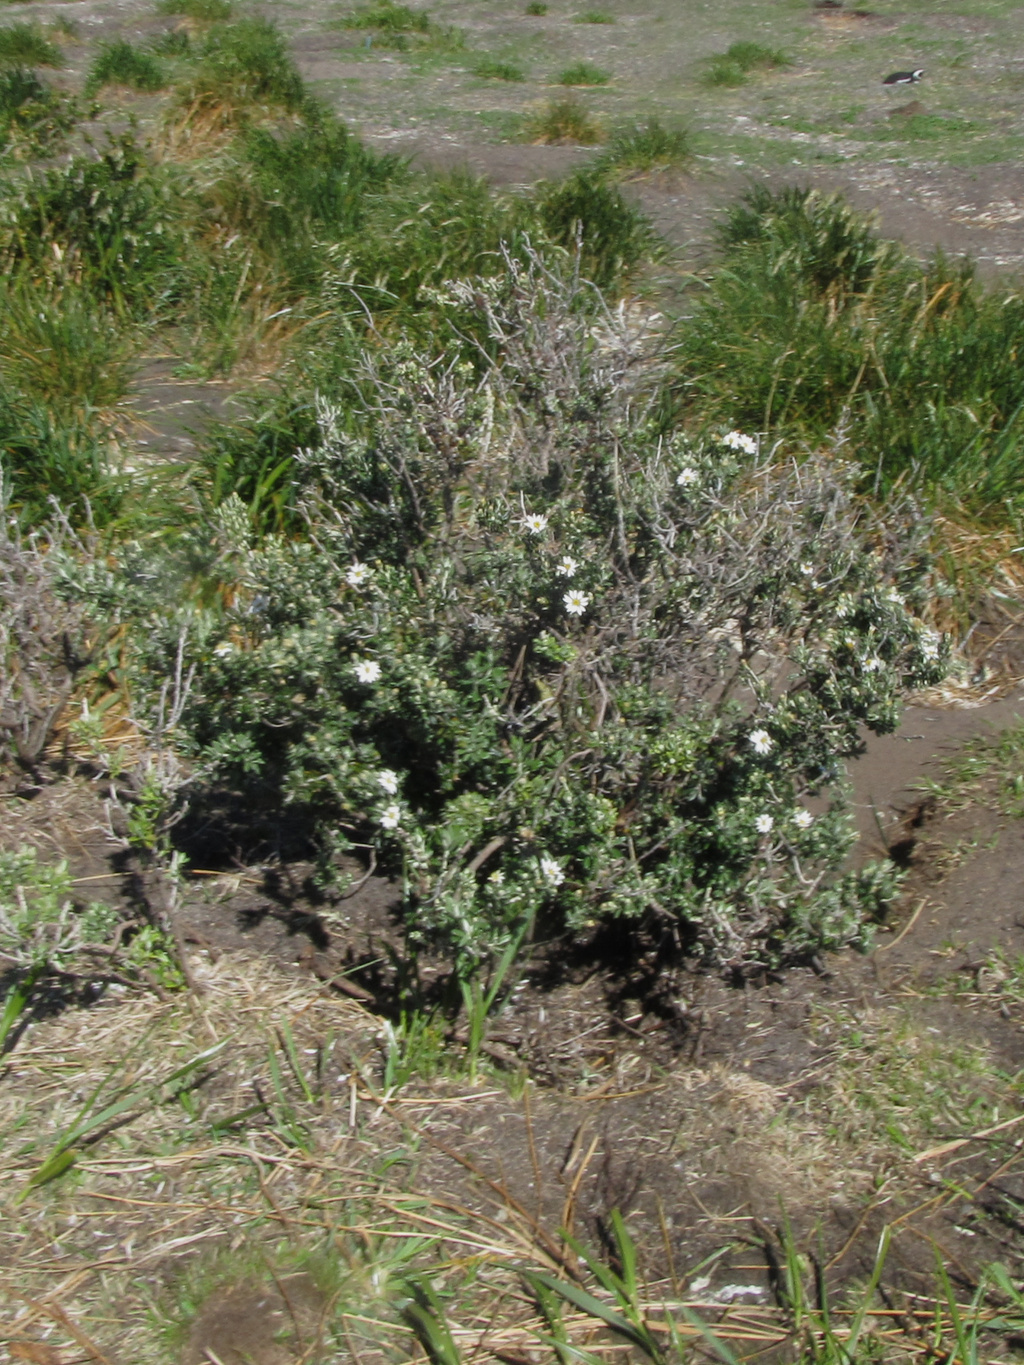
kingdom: Plantae
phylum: Tracheophyta
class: Magnoliopsida
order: Asterales
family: Asteraceae
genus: Chiliotrichum
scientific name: Chiliotrichum diffusum
